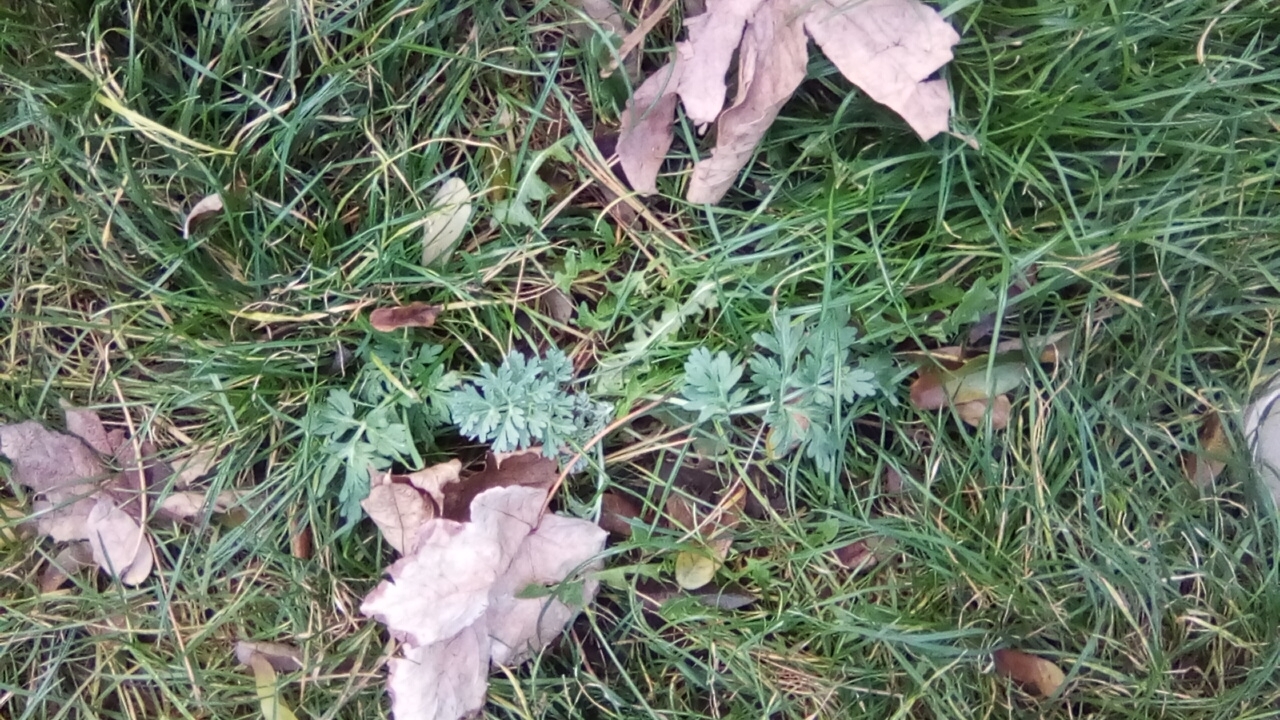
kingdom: Plantae
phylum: Tracheophyta
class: Magnoliopsida
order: Asterales
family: Asteraceae
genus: Artemisia
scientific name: Artemisia absinthium
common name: Wormwood
